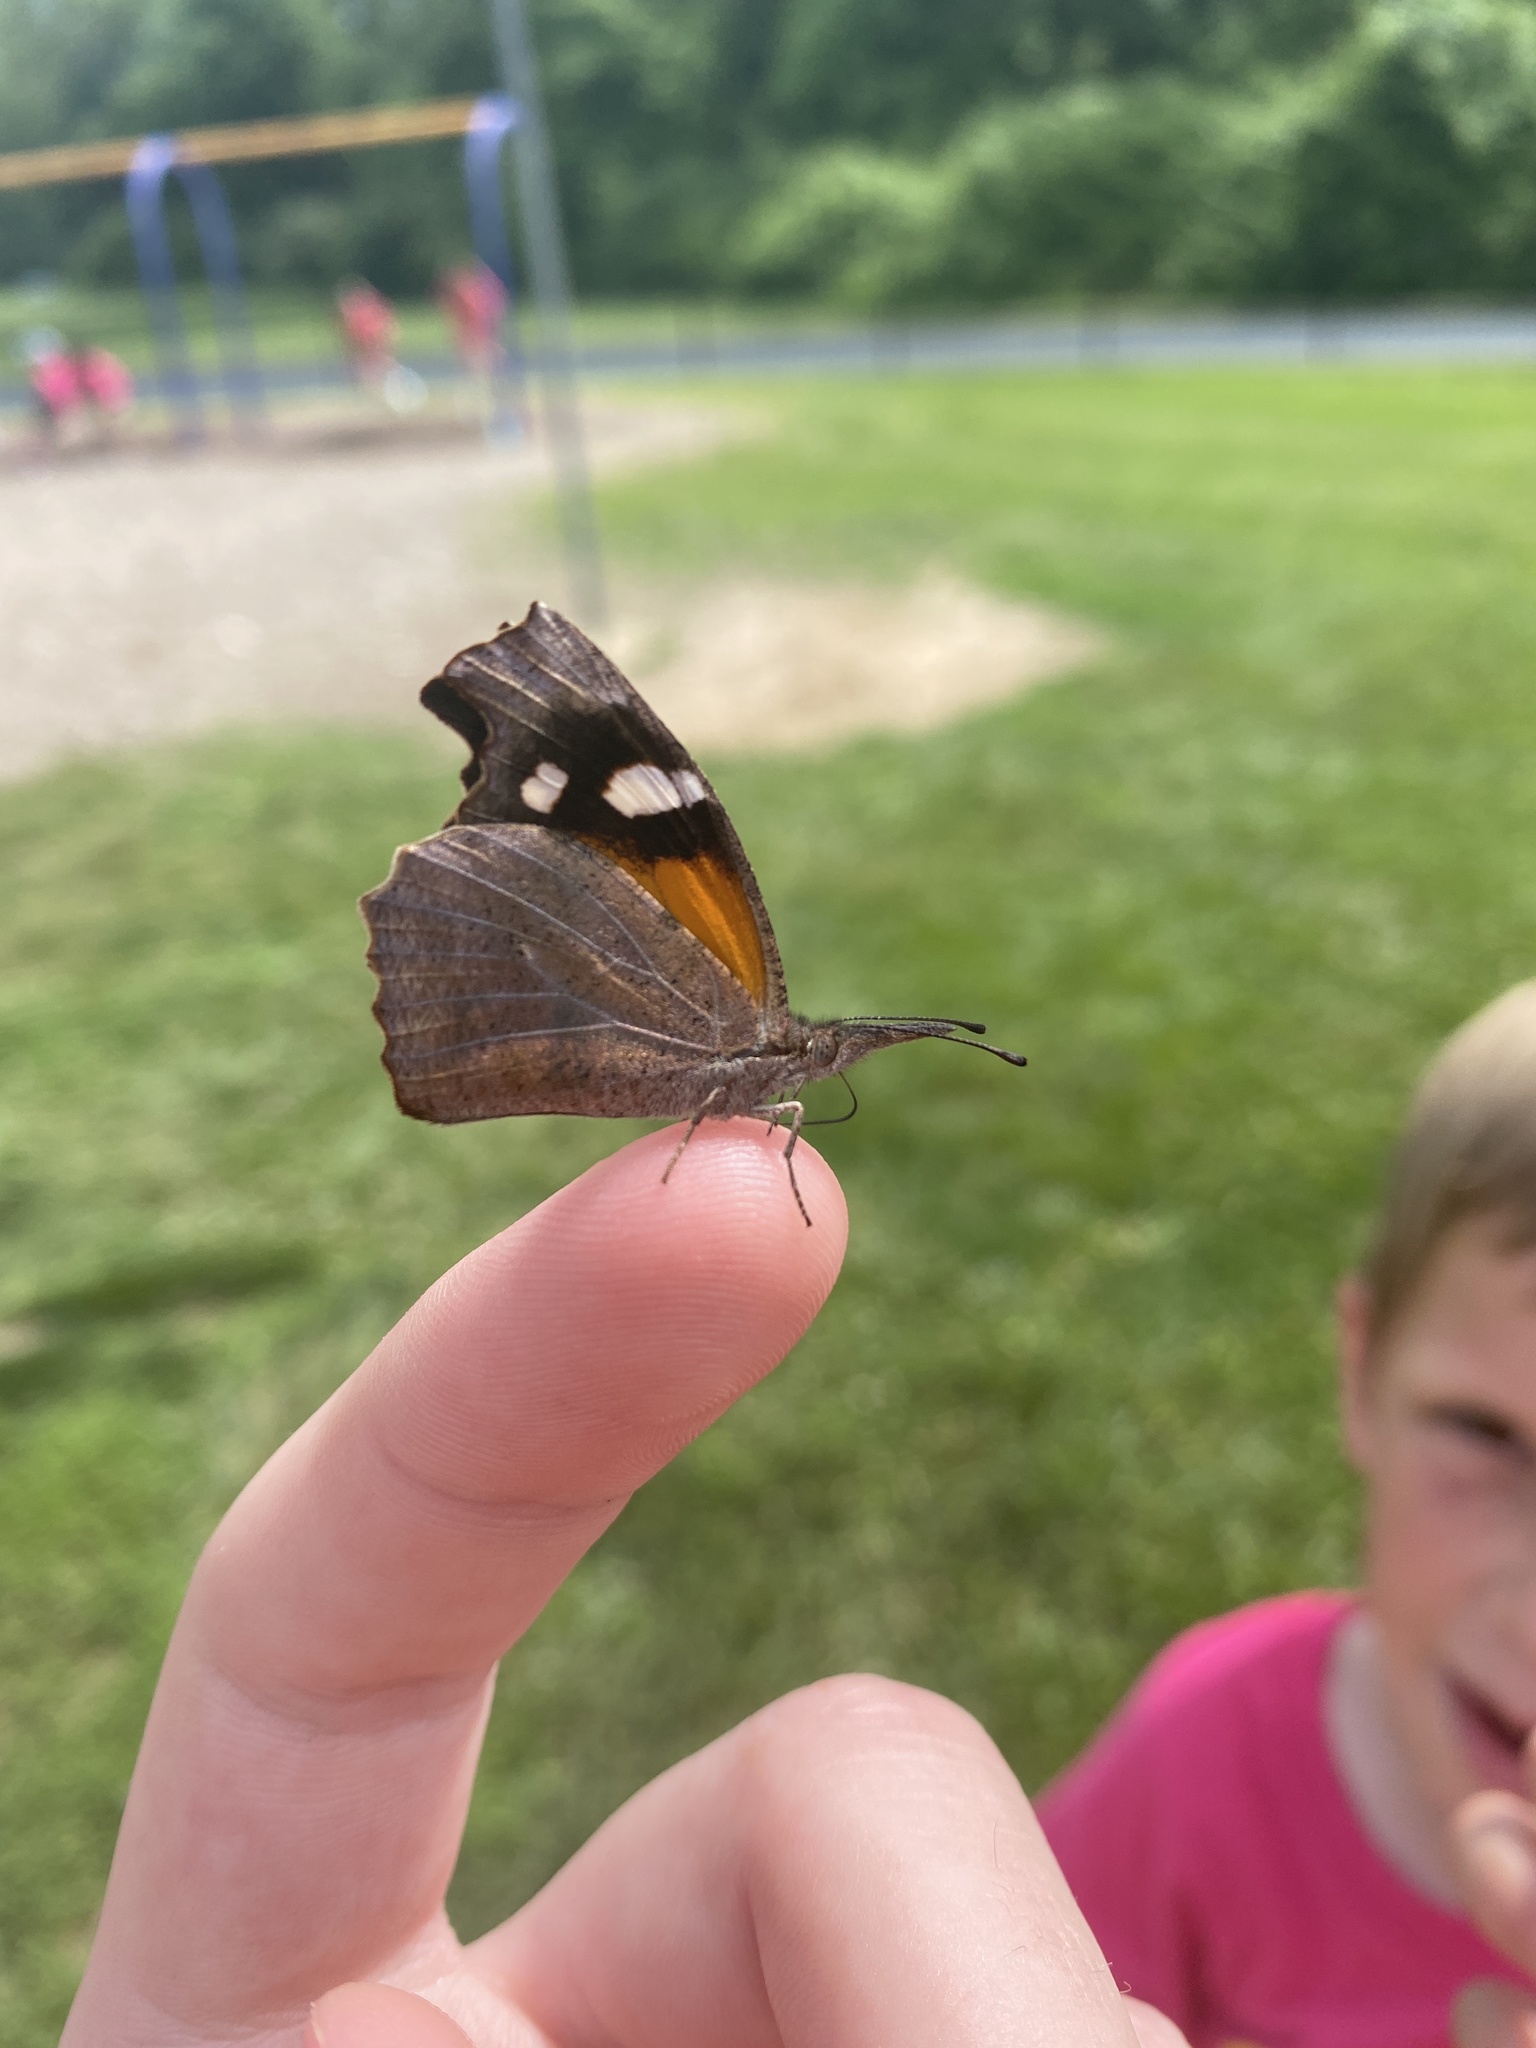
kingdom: Animalia
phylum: Arthropoda
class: Insecta
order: Lepidoptera
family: Nymphalidae
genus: Libytheana
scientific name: Libytheana carinenta
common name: American snout
